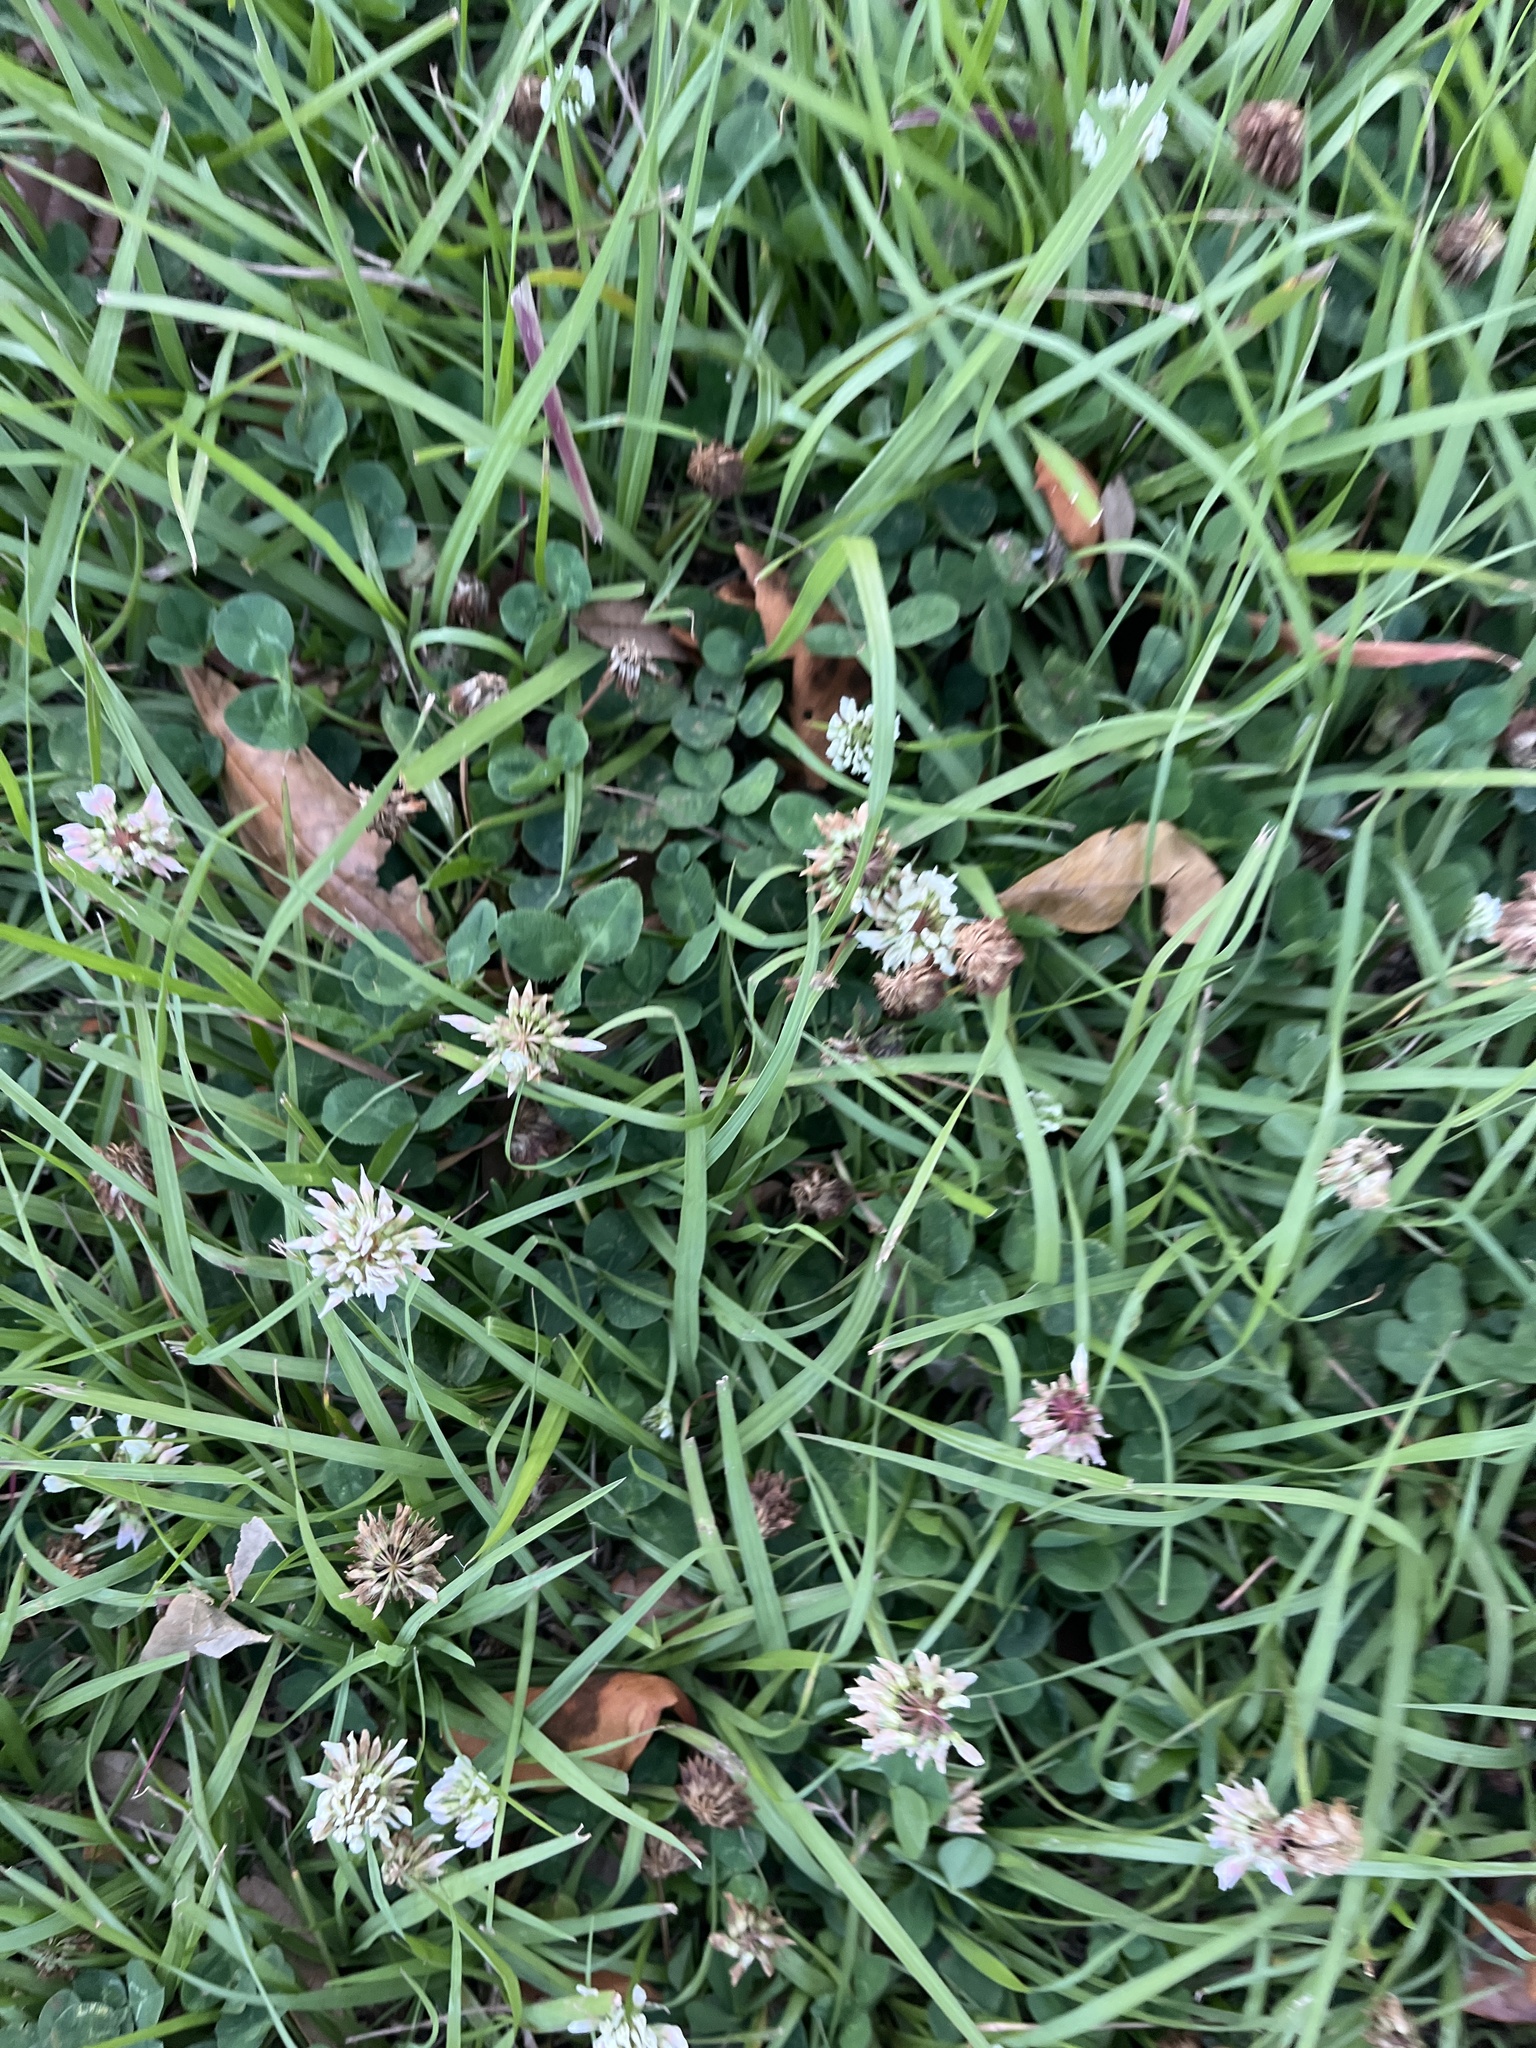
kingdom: Plantae
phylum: Tracheophyta
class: Magnoliopsida
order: Fabales
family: Fabaceae
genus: Trifolium
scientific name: Trifolium repens
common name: White clover
